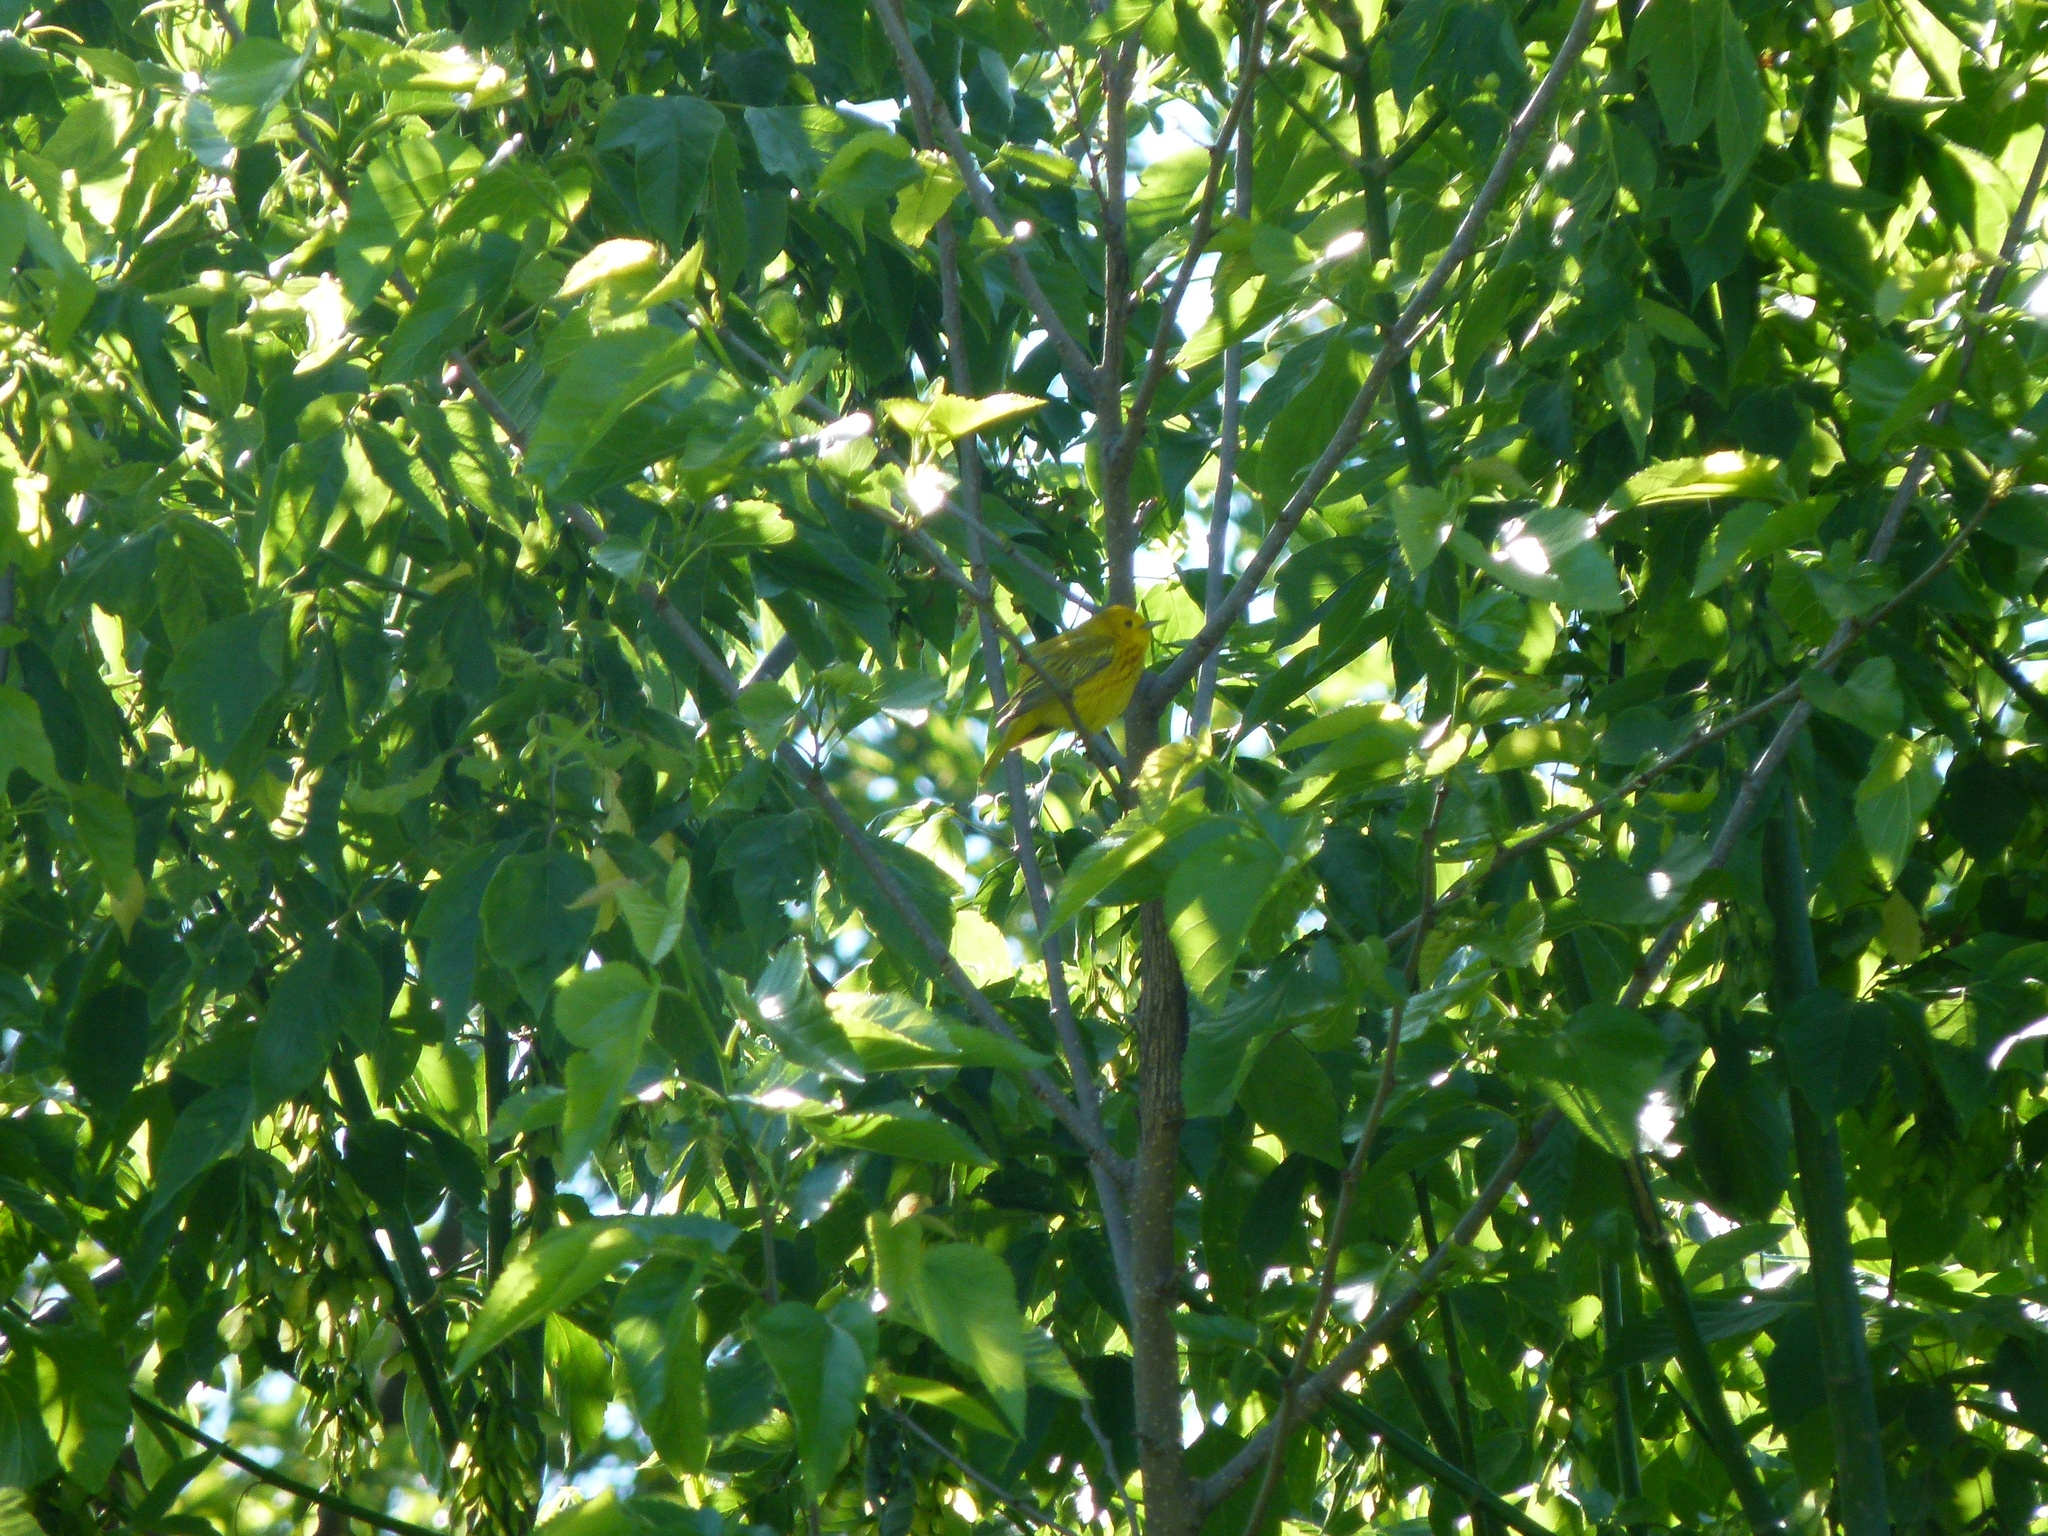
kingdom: Animalia
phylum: Chordata
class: Aves
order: Passeriformes
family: Parulidae
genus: Setophaga
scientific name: Setophaga petechia
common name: Yellow warbler
